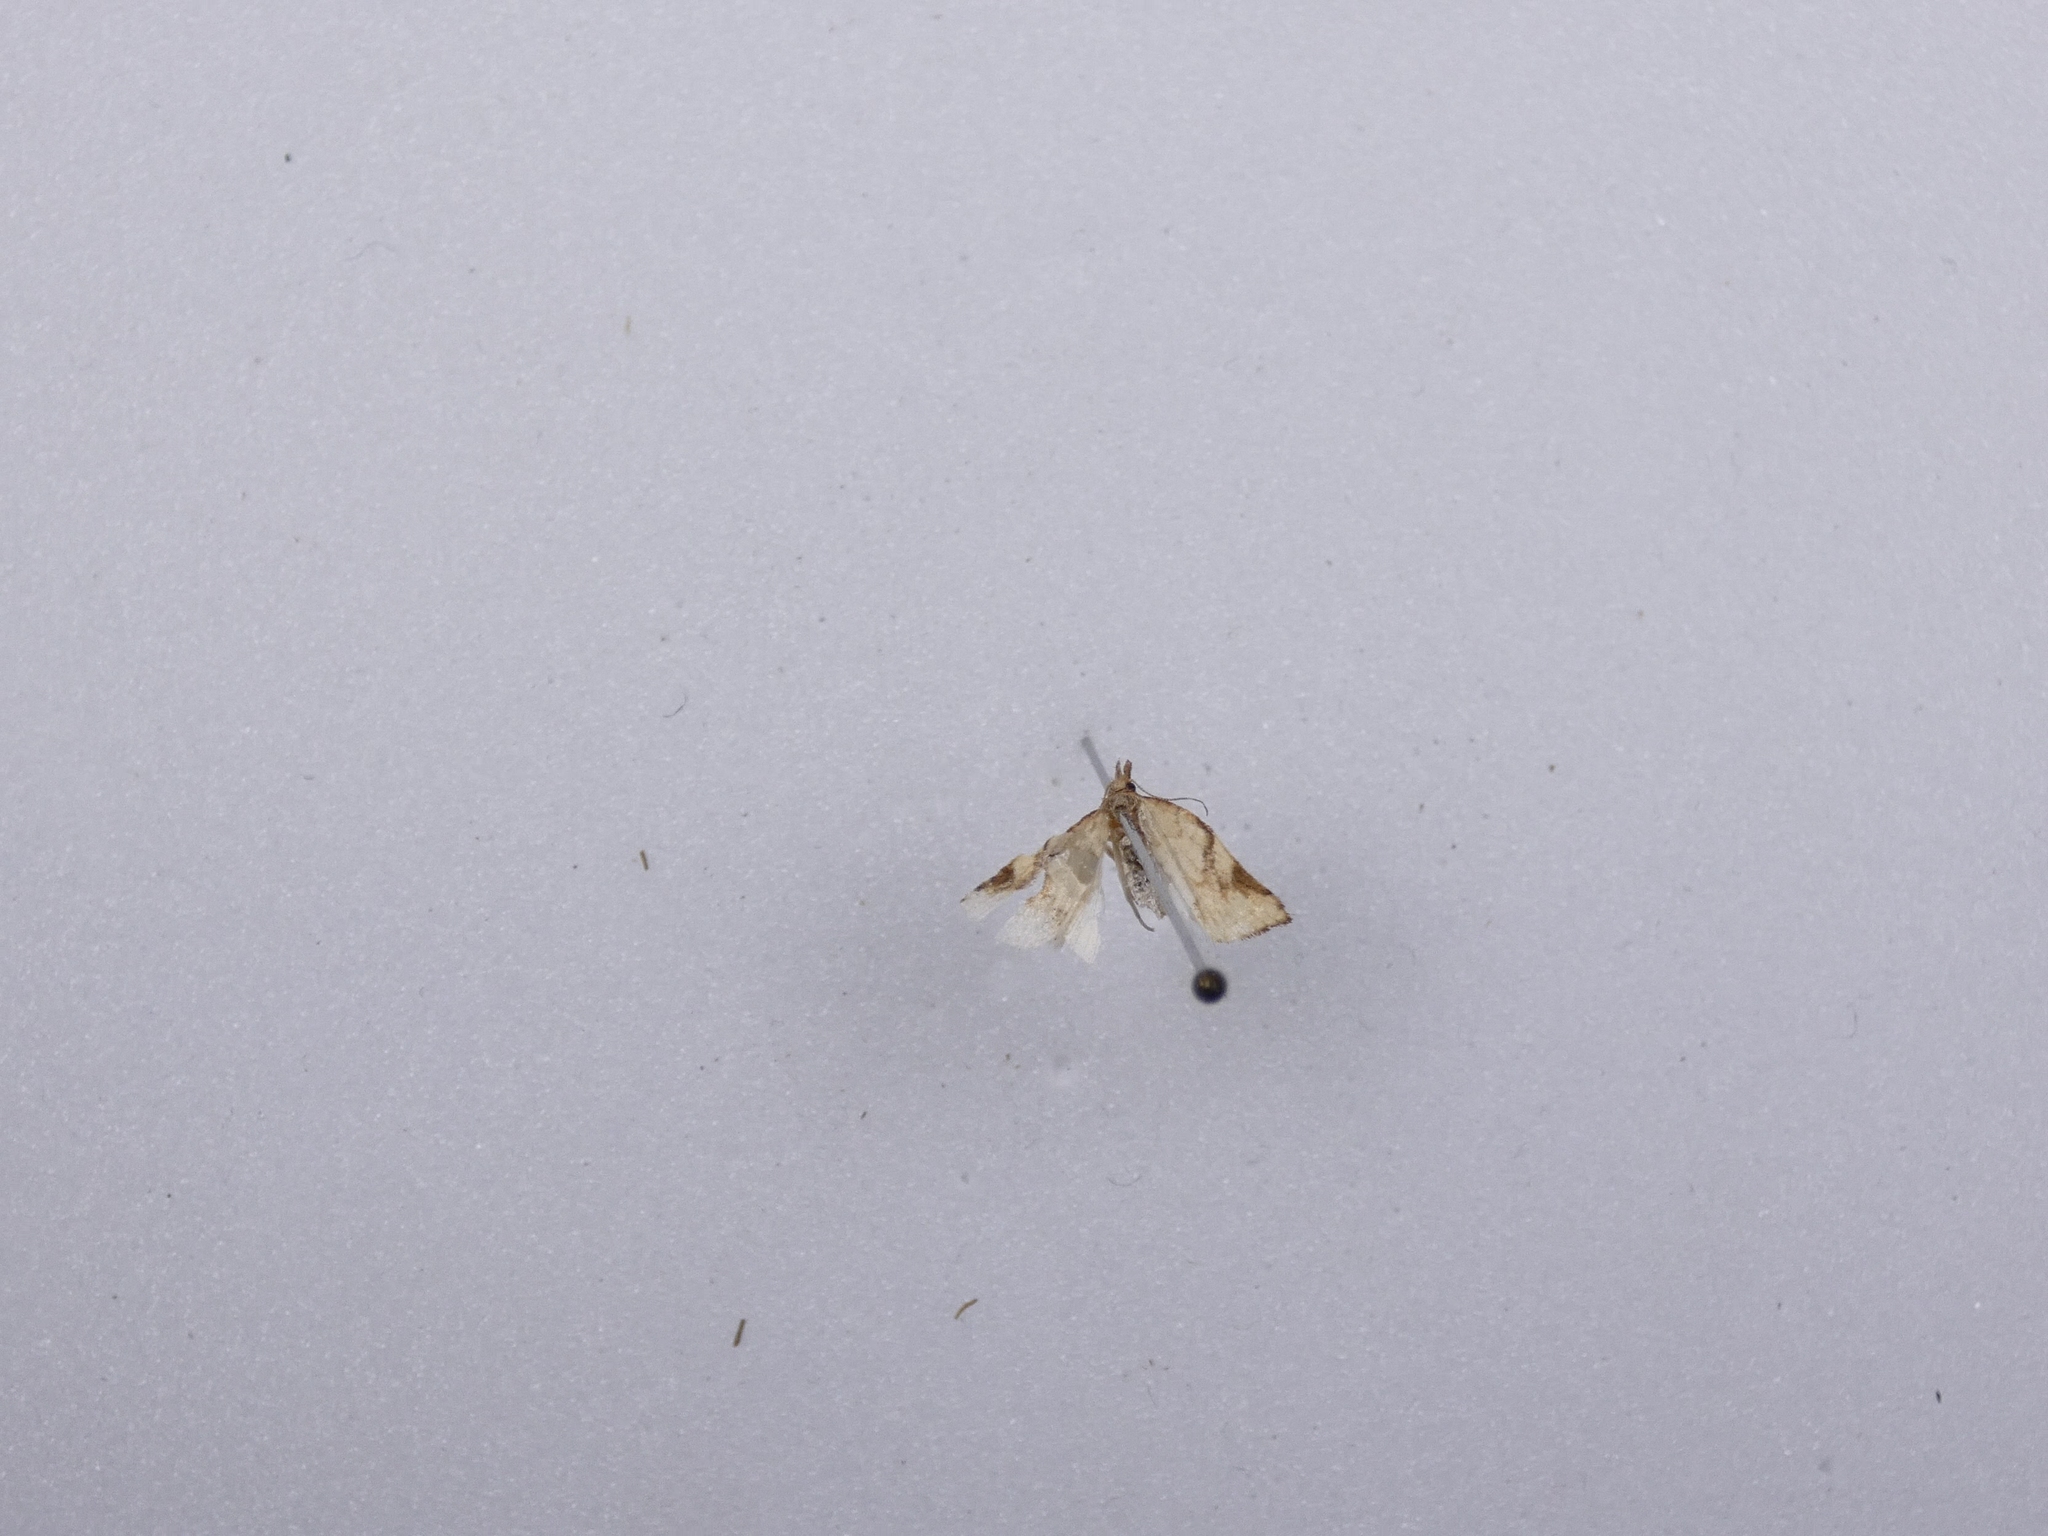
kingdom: Animalia
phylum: Arthropoda
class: Insecta
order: Lepidoptera
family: Tortricidae
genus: Catamacta
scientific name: Catamacta gavisana
